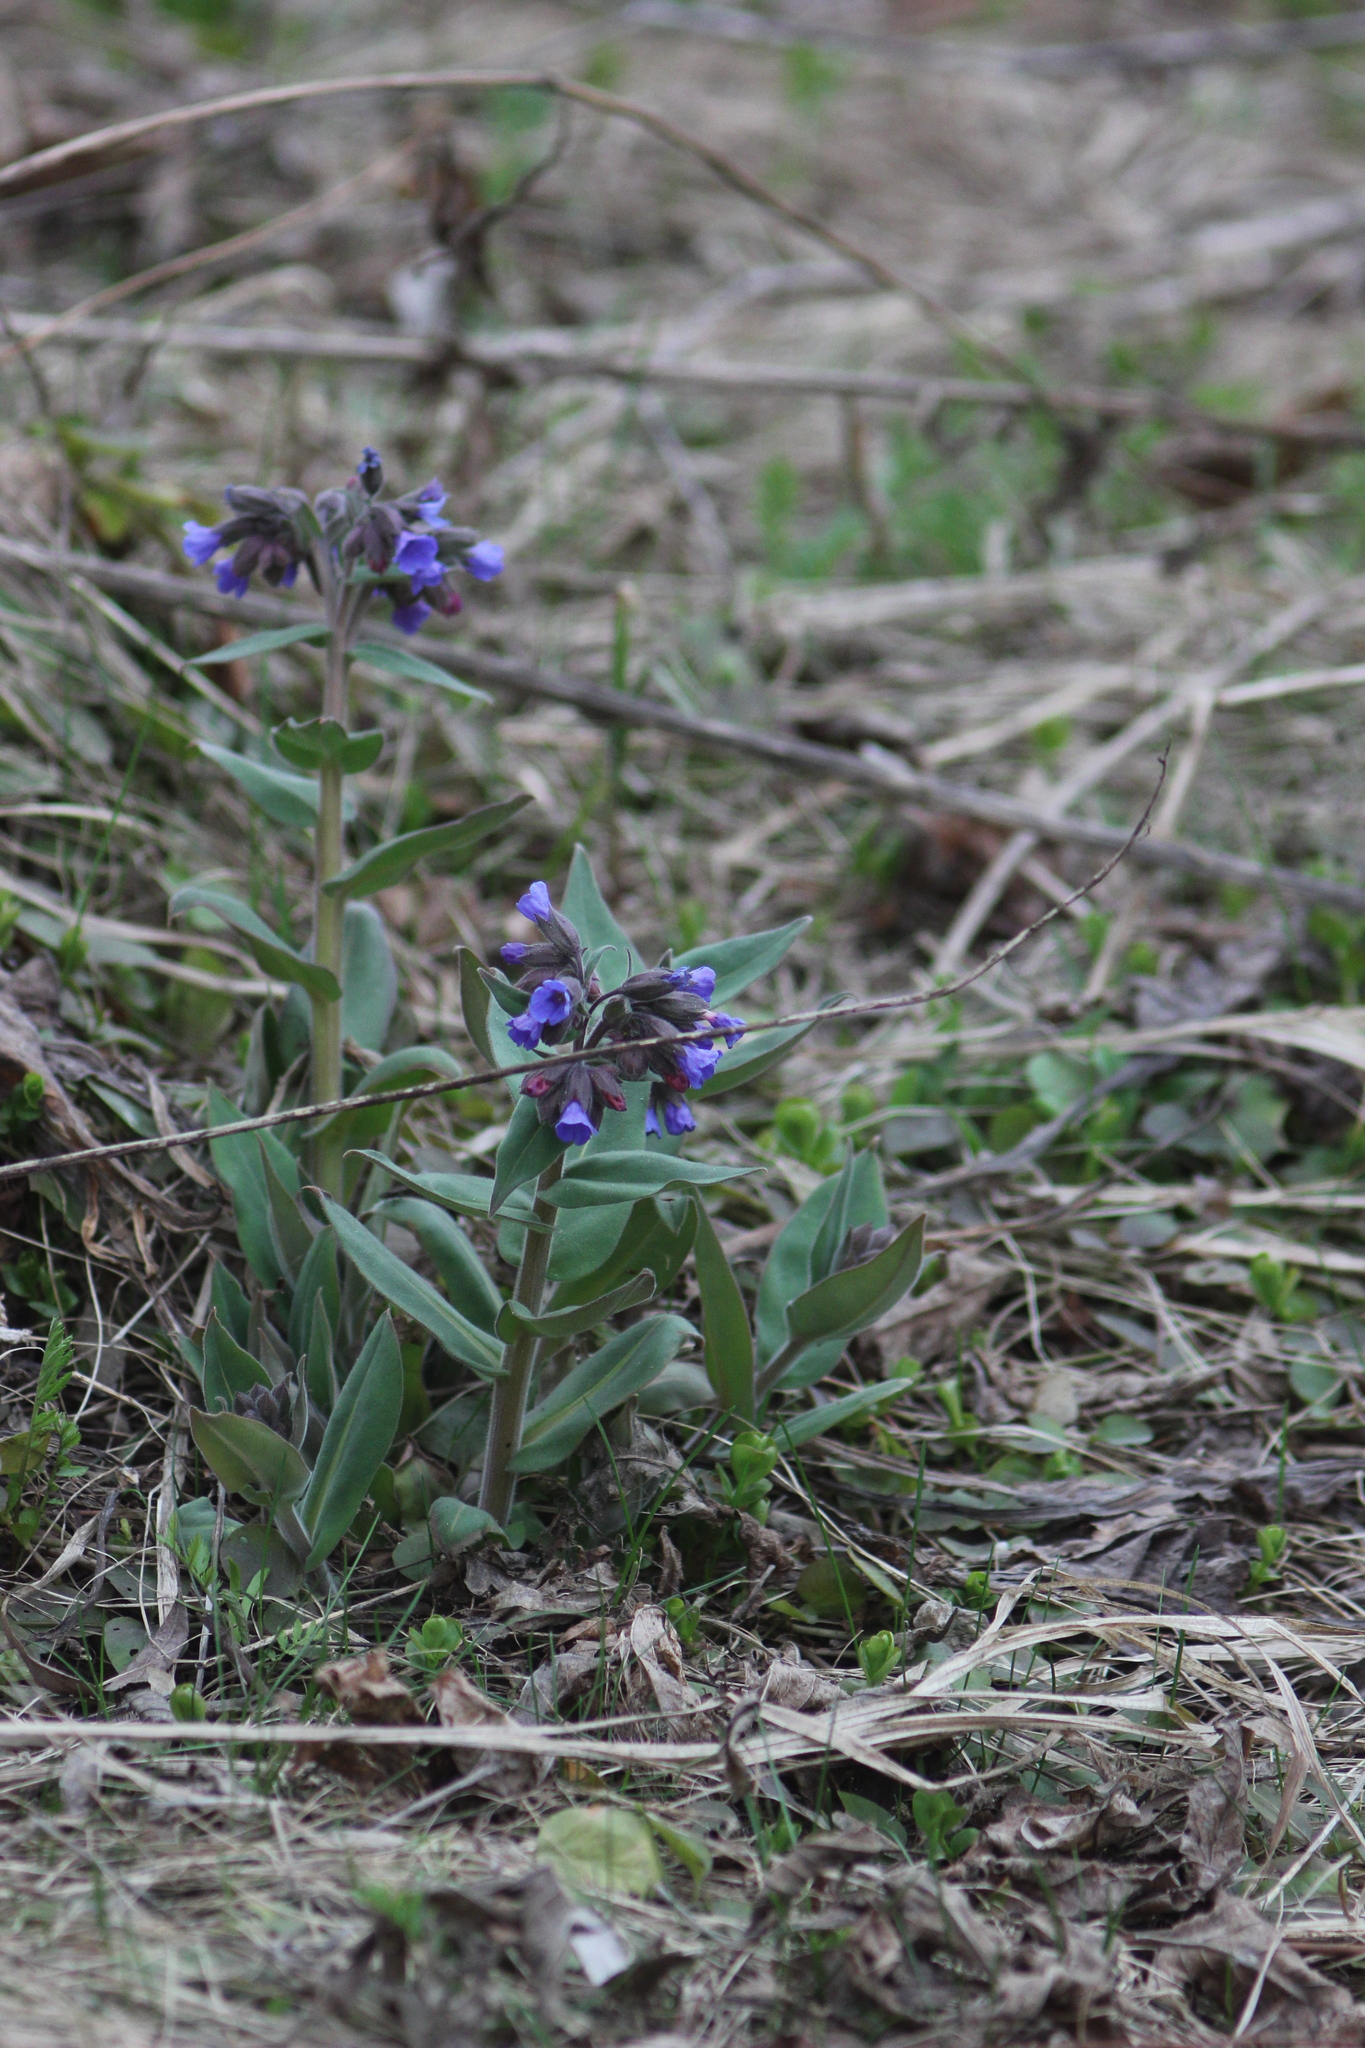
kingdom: Plantae
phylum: Tracheophyta
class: Magnoliopsida
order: Boraginales
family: Boraginaceae
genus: Pulmonaria
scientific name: Pulmonaria mollis
